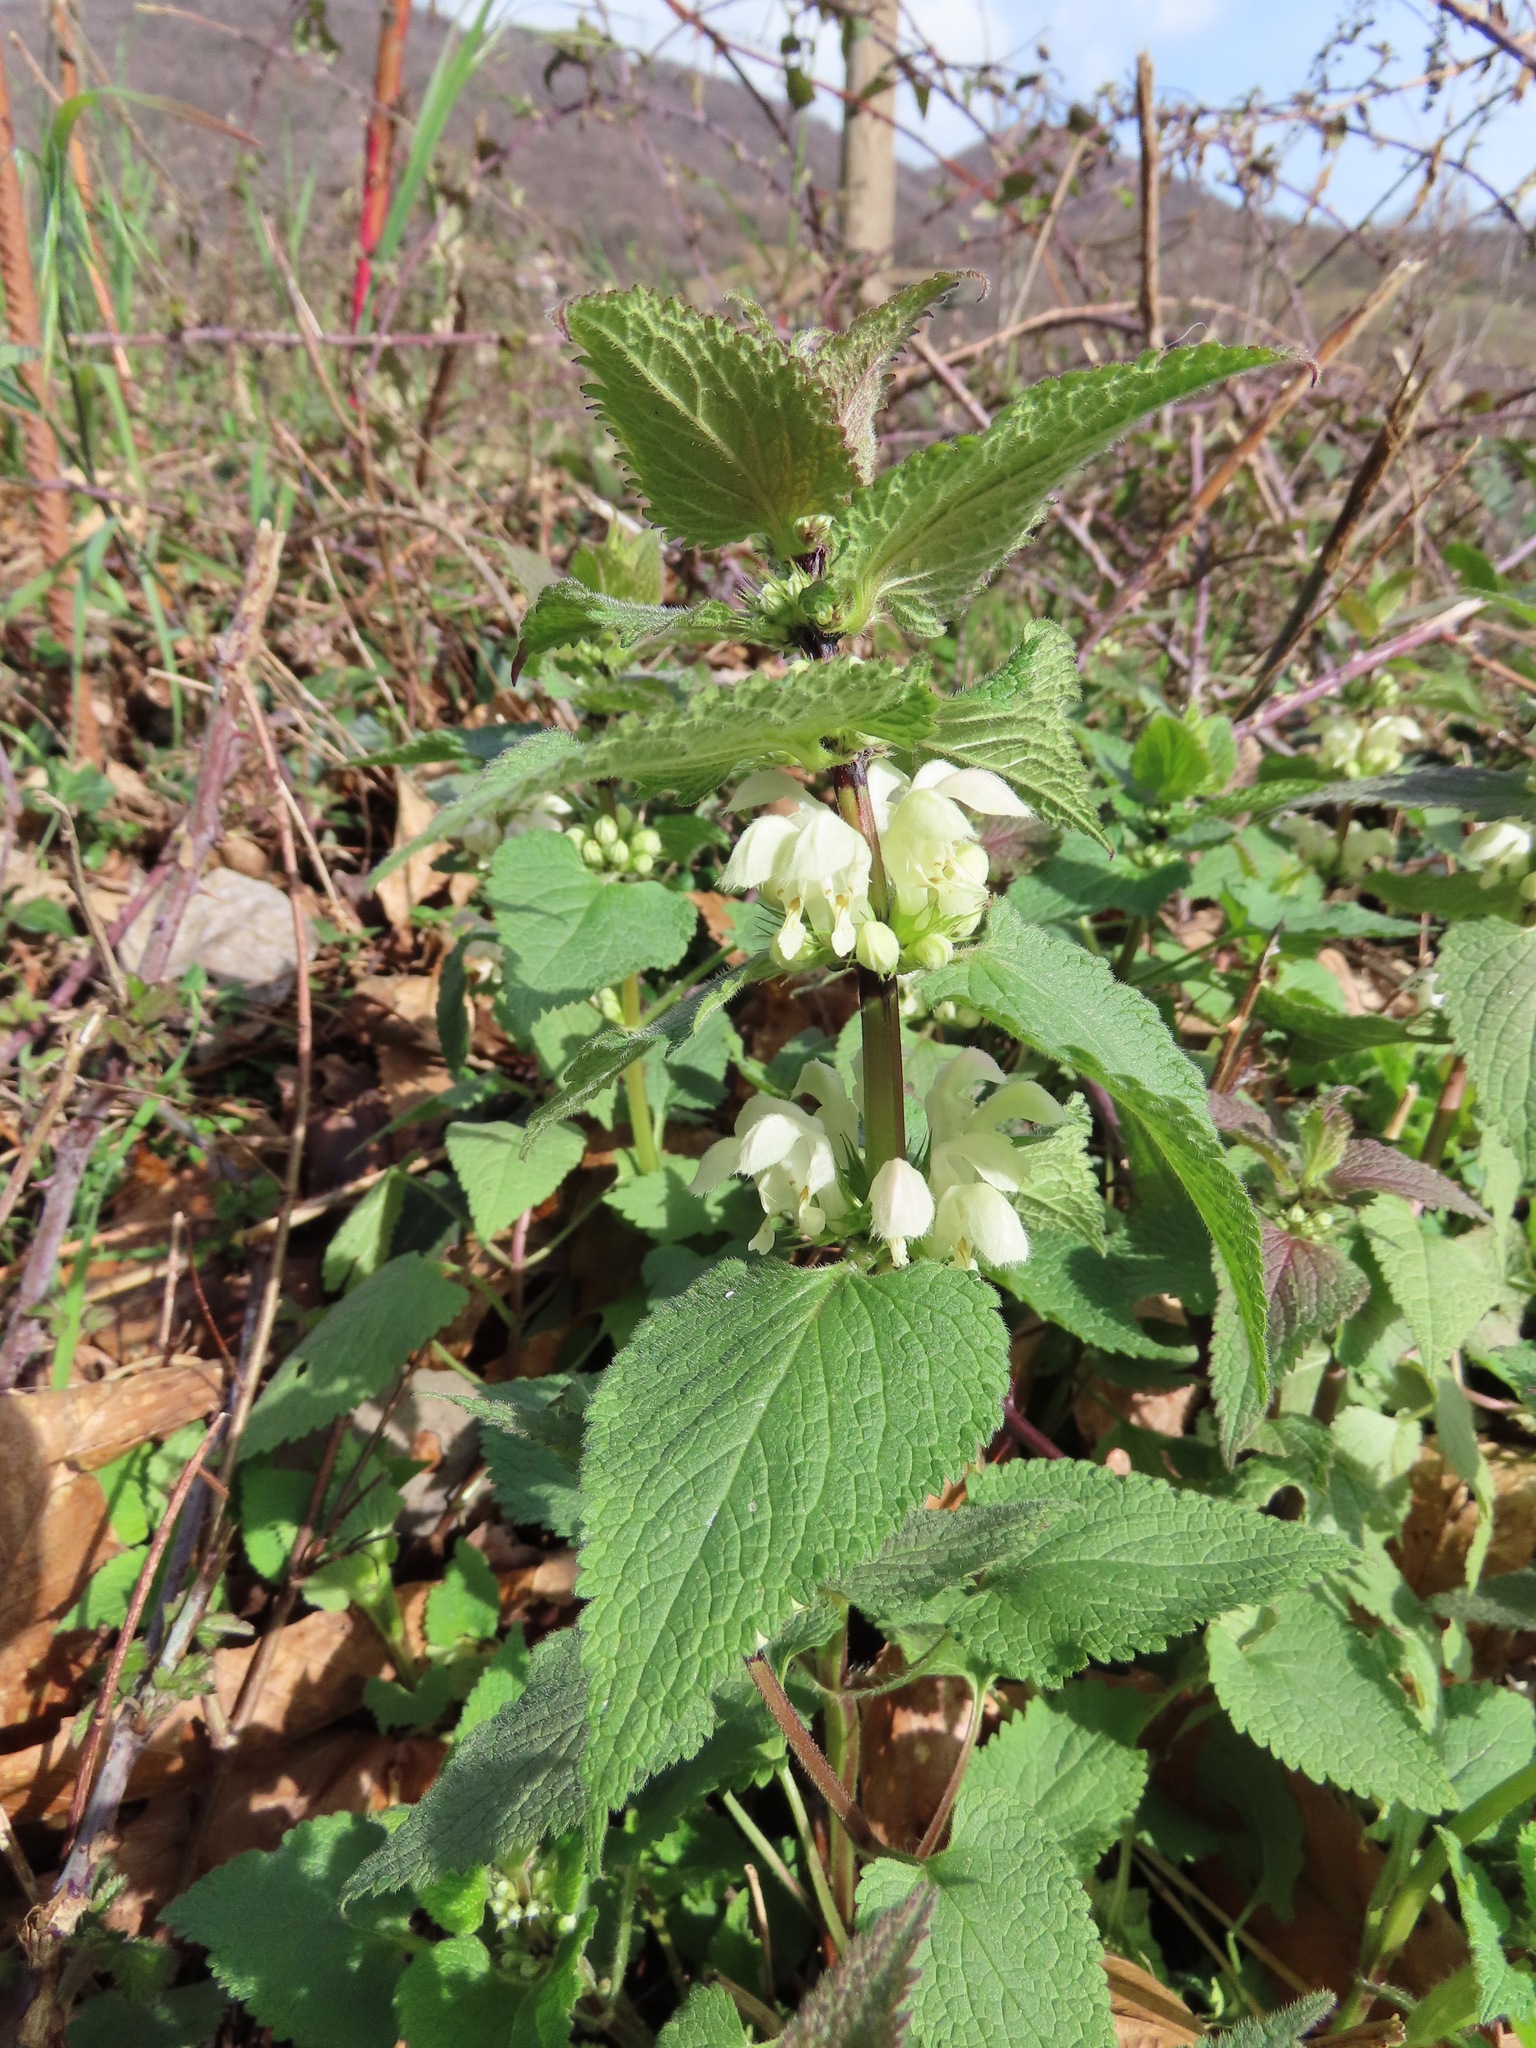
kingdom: Plantae
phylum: Tracheophyta
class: Magnoliopsida
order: Lamiales
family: Lamiaceae
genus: Lamium
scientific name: Lamium album
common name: White dead-nettle
